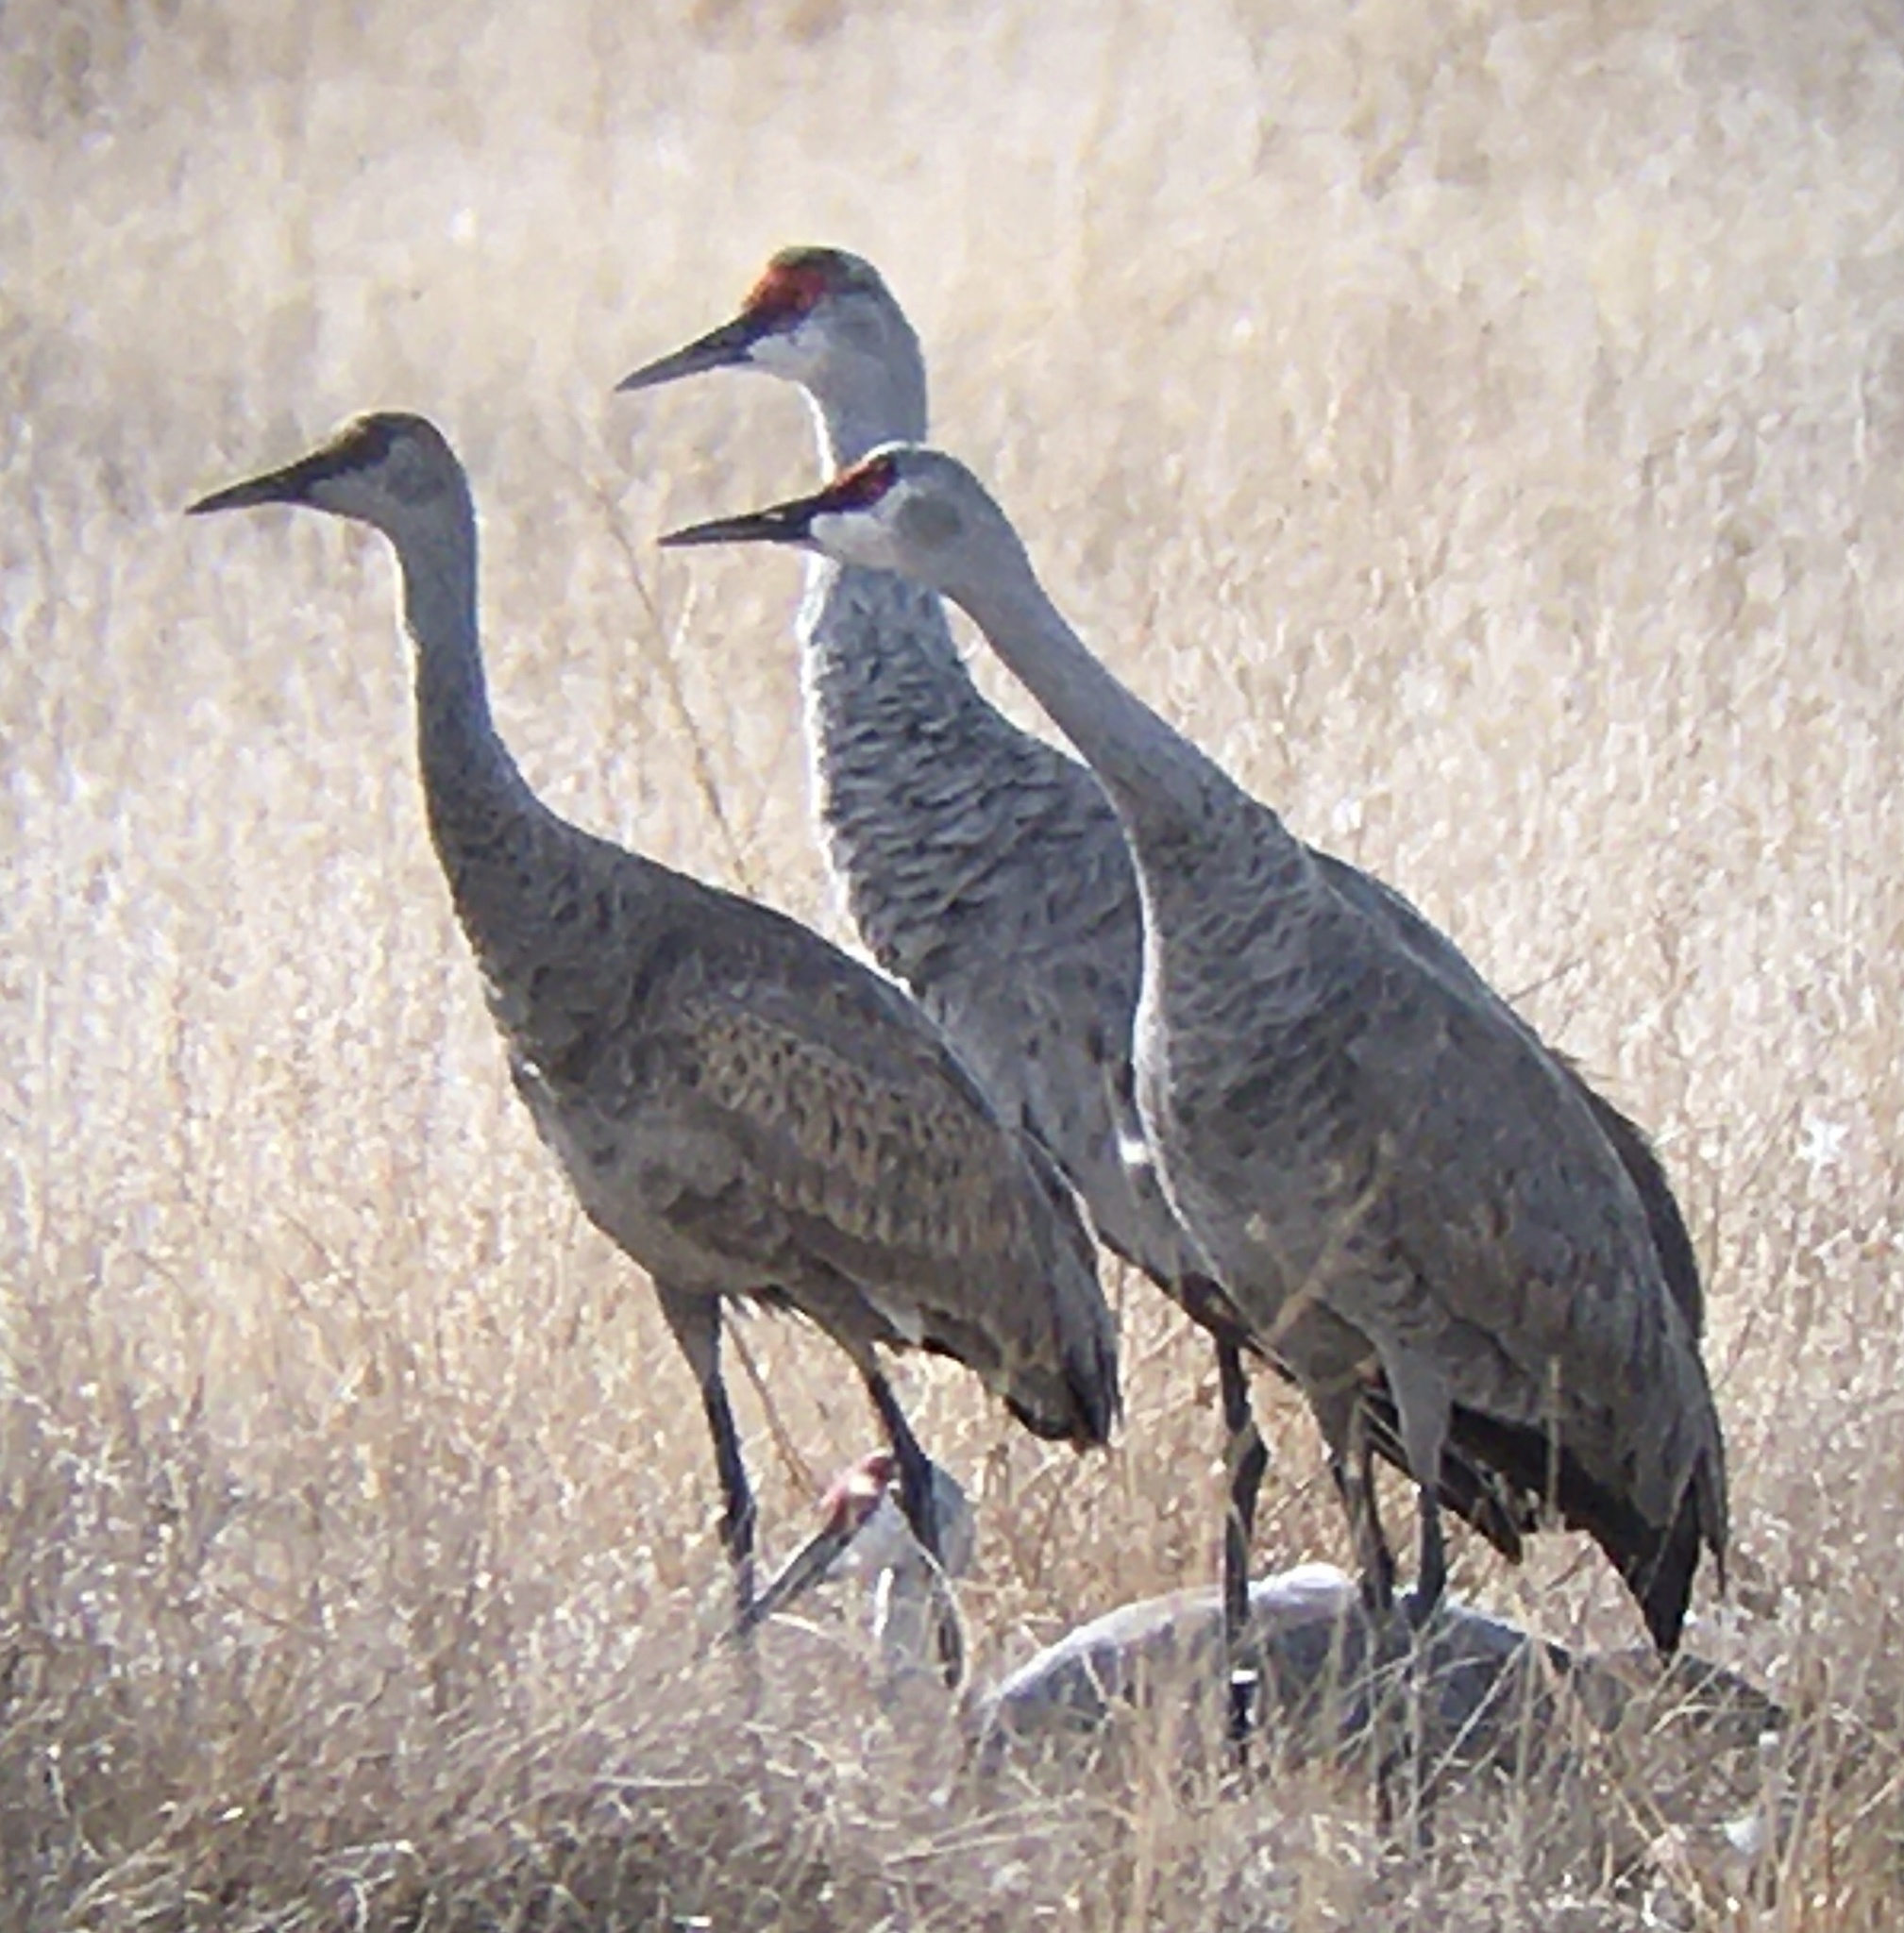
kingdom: Animalia
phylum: Chordata
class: Aves
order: Gruiformes
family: Gruidae
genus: Grus
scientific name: Grus canadensis
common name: Sandhill crane
